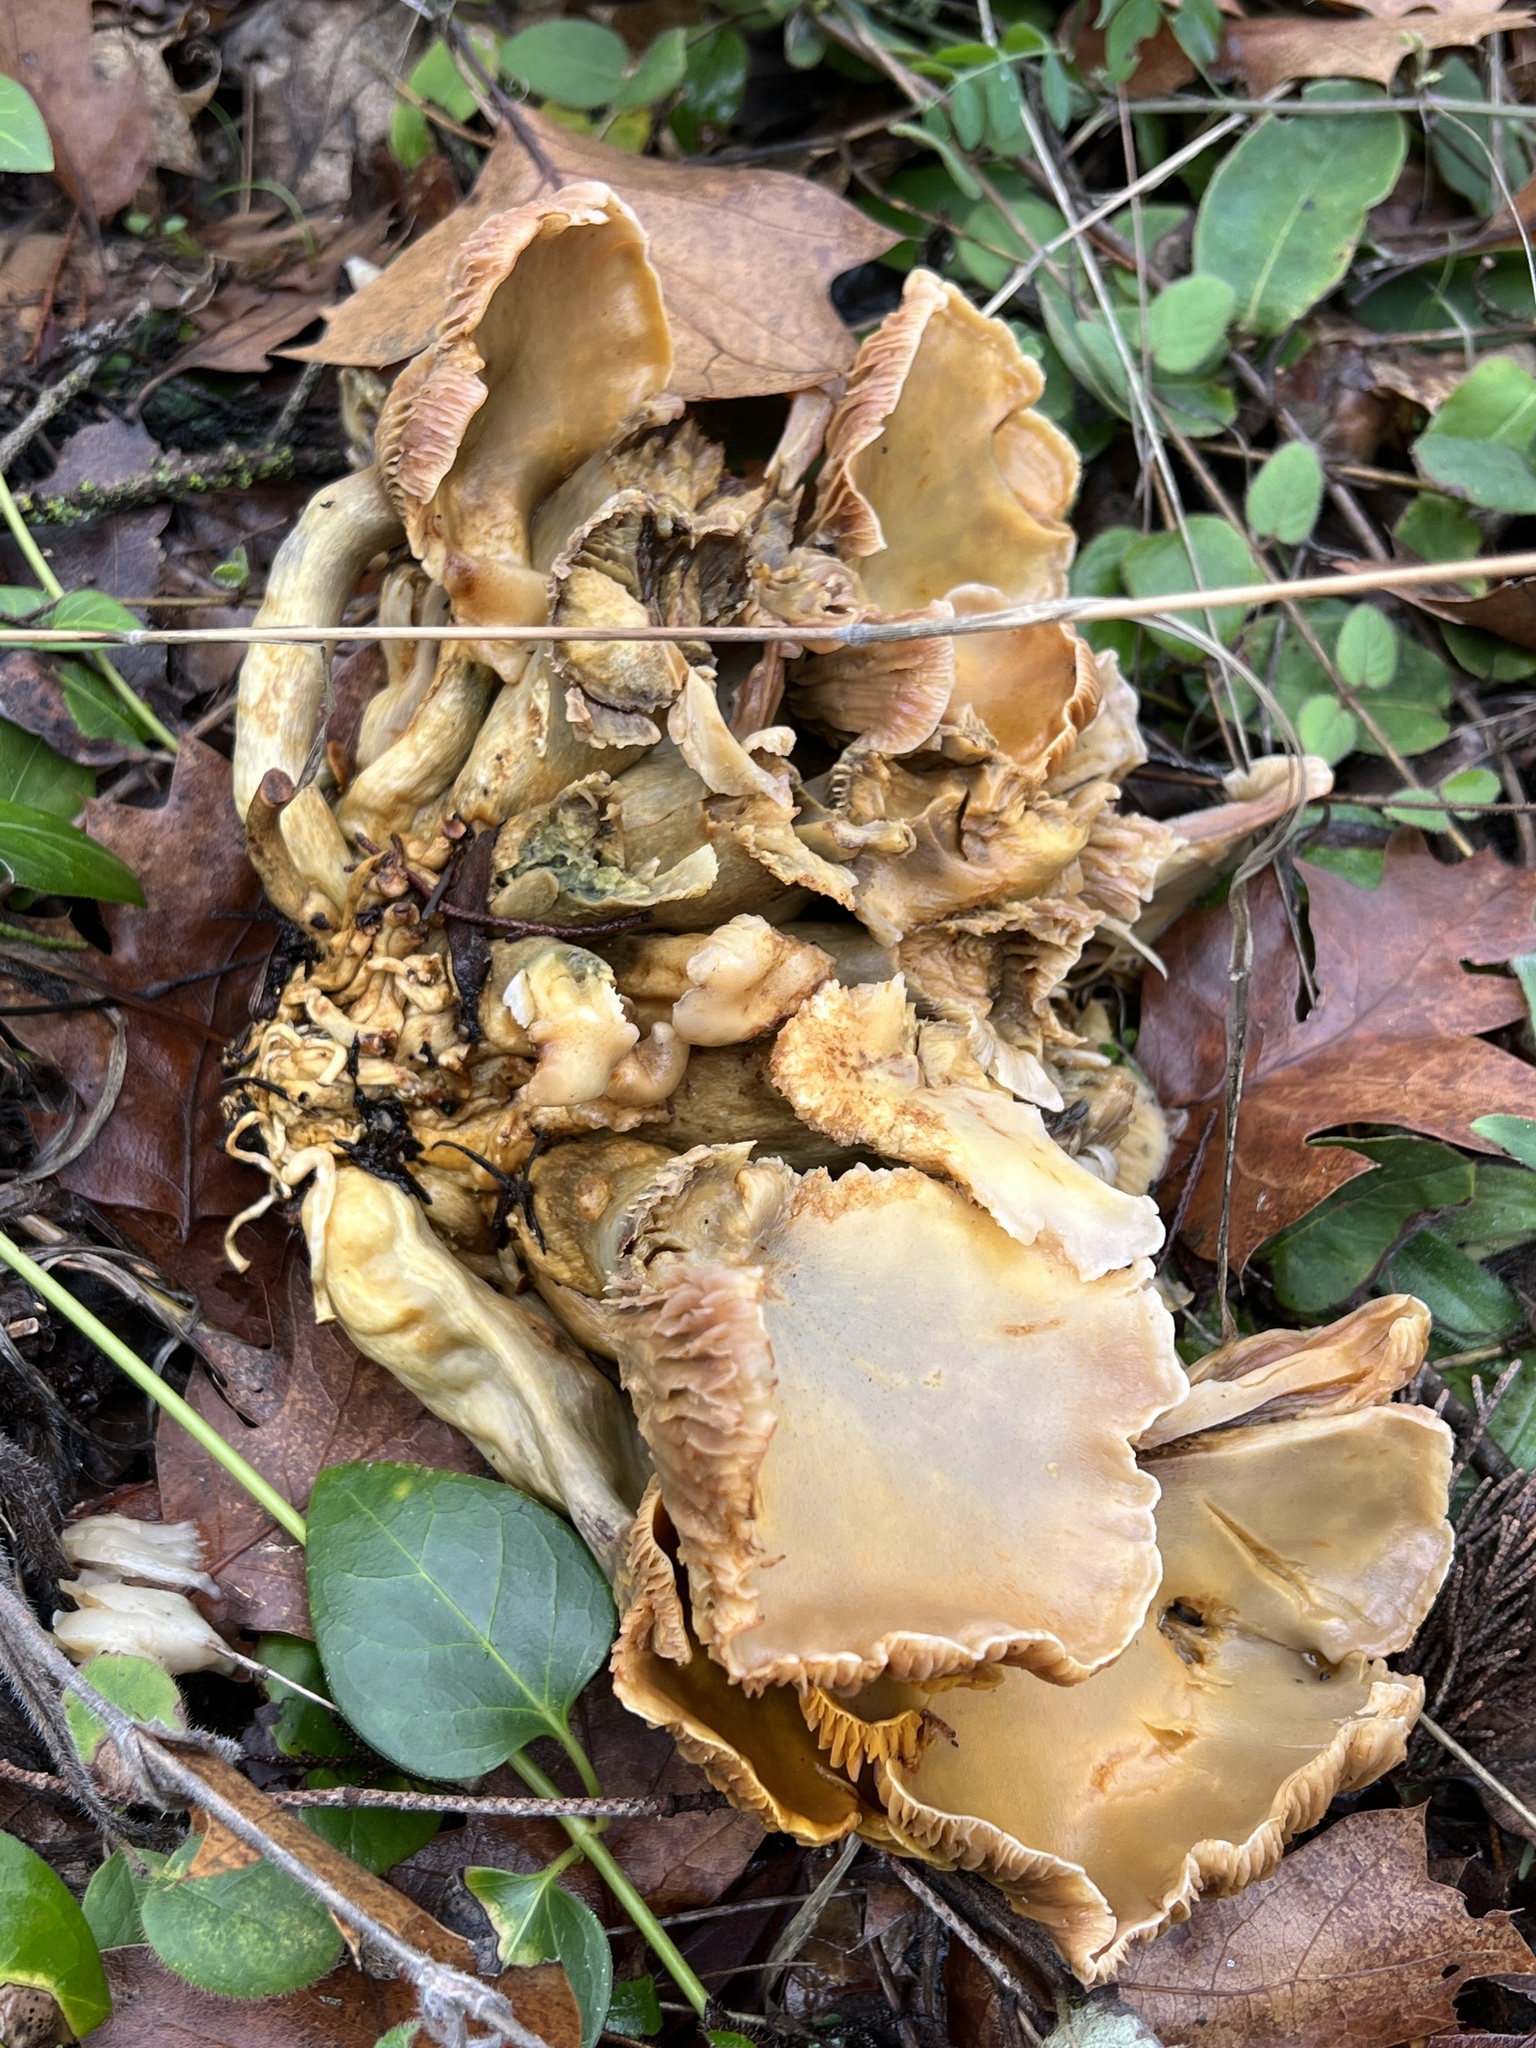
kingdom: Fungi
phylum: Basidiomycota
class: Agaricomycetes
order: Agaricales
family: Omphalotaceae
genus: Omphalotus
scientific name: Omphalotus olivascens
